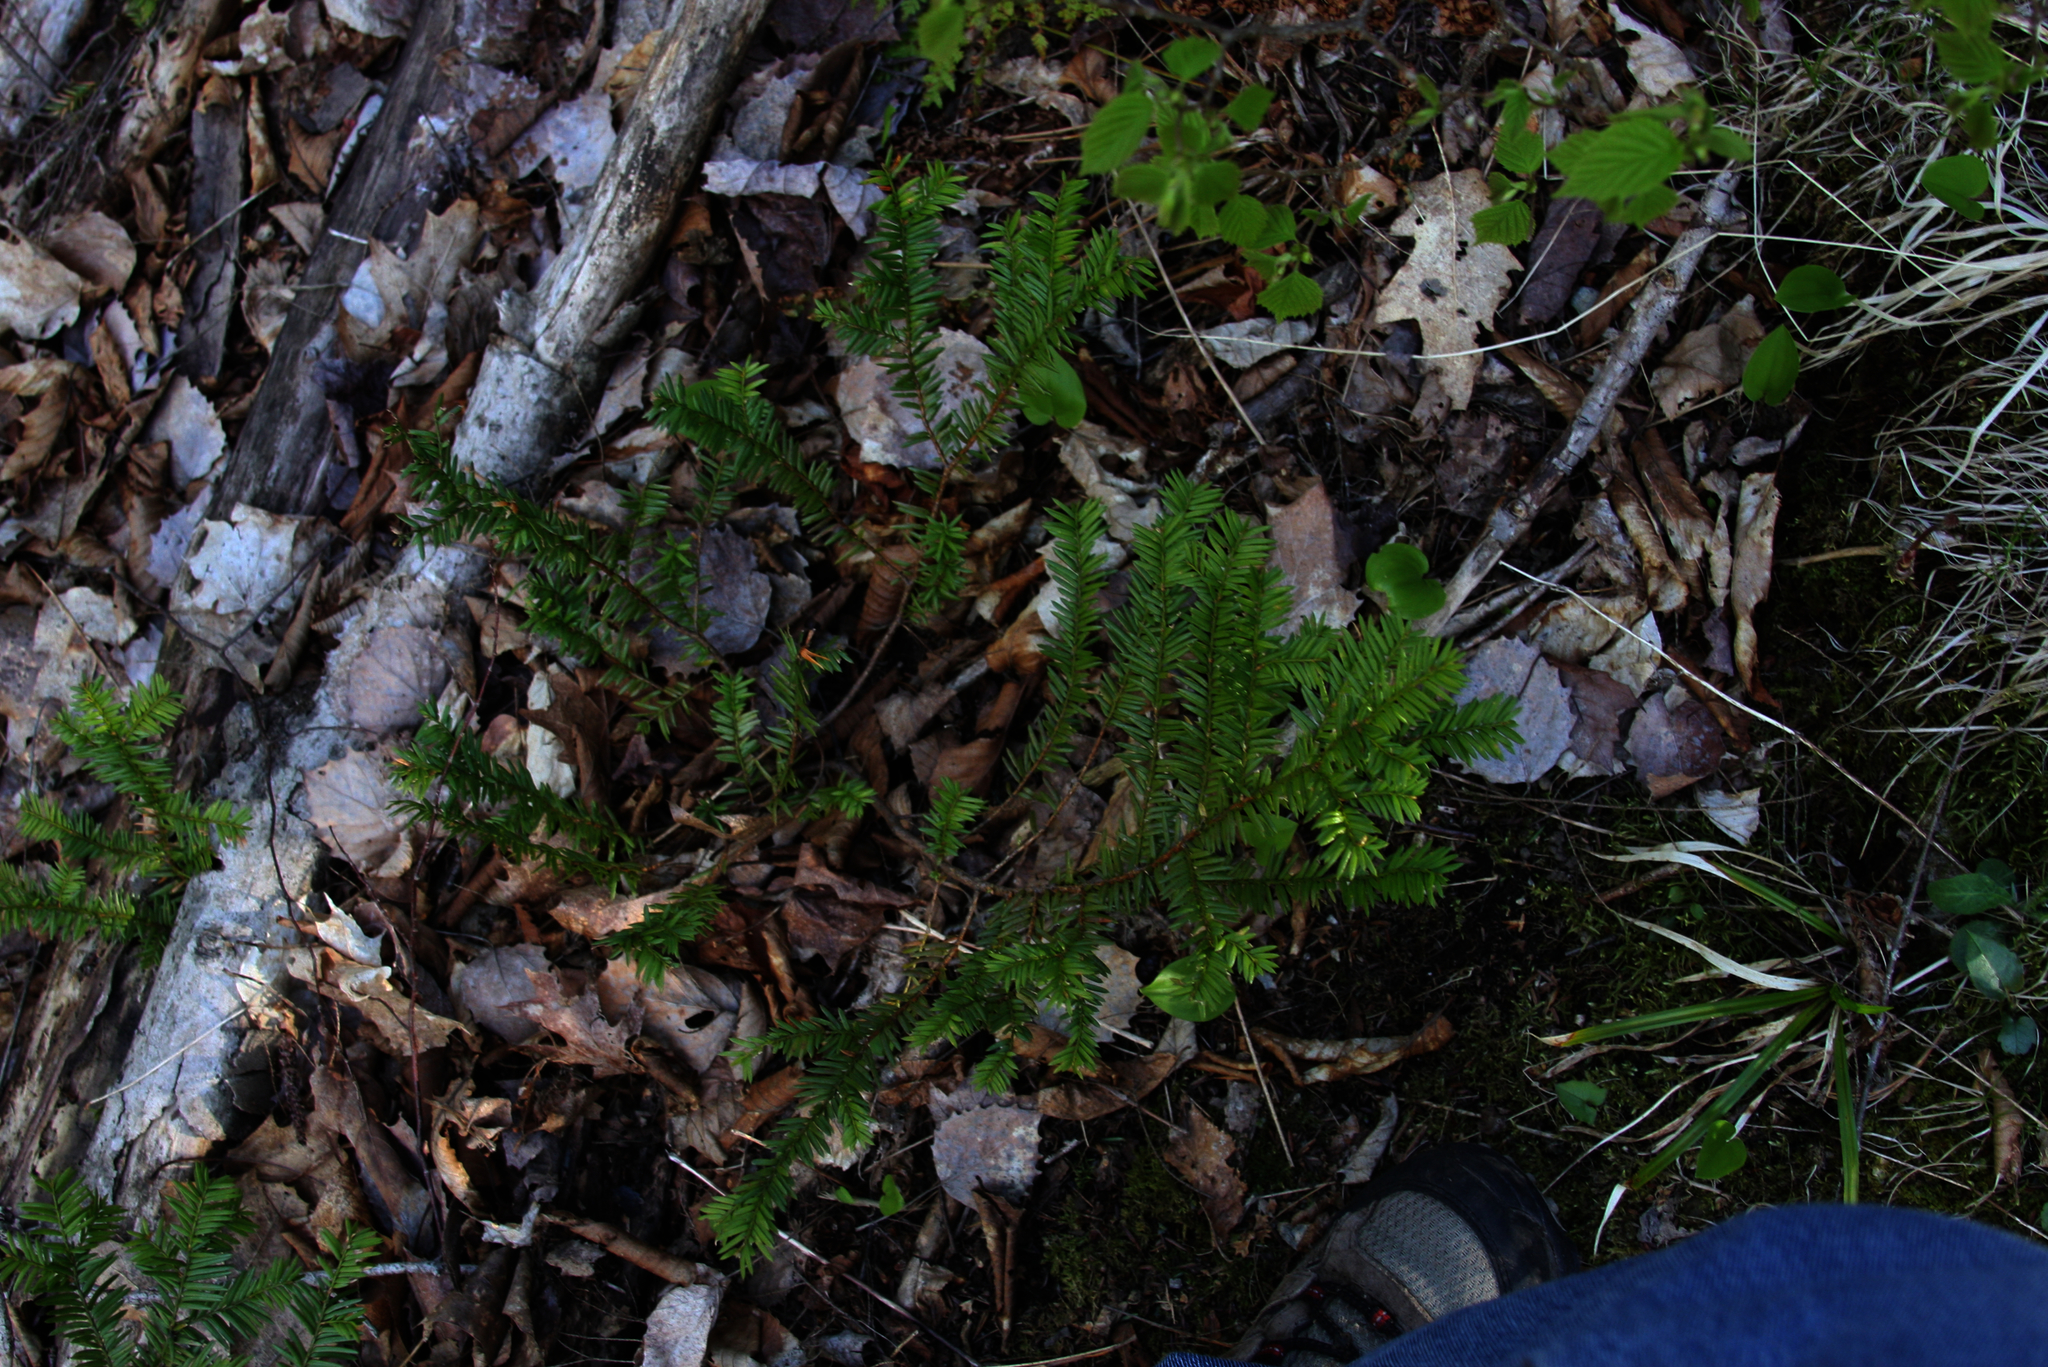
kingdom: Plantae
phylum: Tracheophyta
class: Pinopsida
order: Pinales
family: Taxaceae
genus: Taxus
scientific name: Taxus canadensis
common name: American yew
